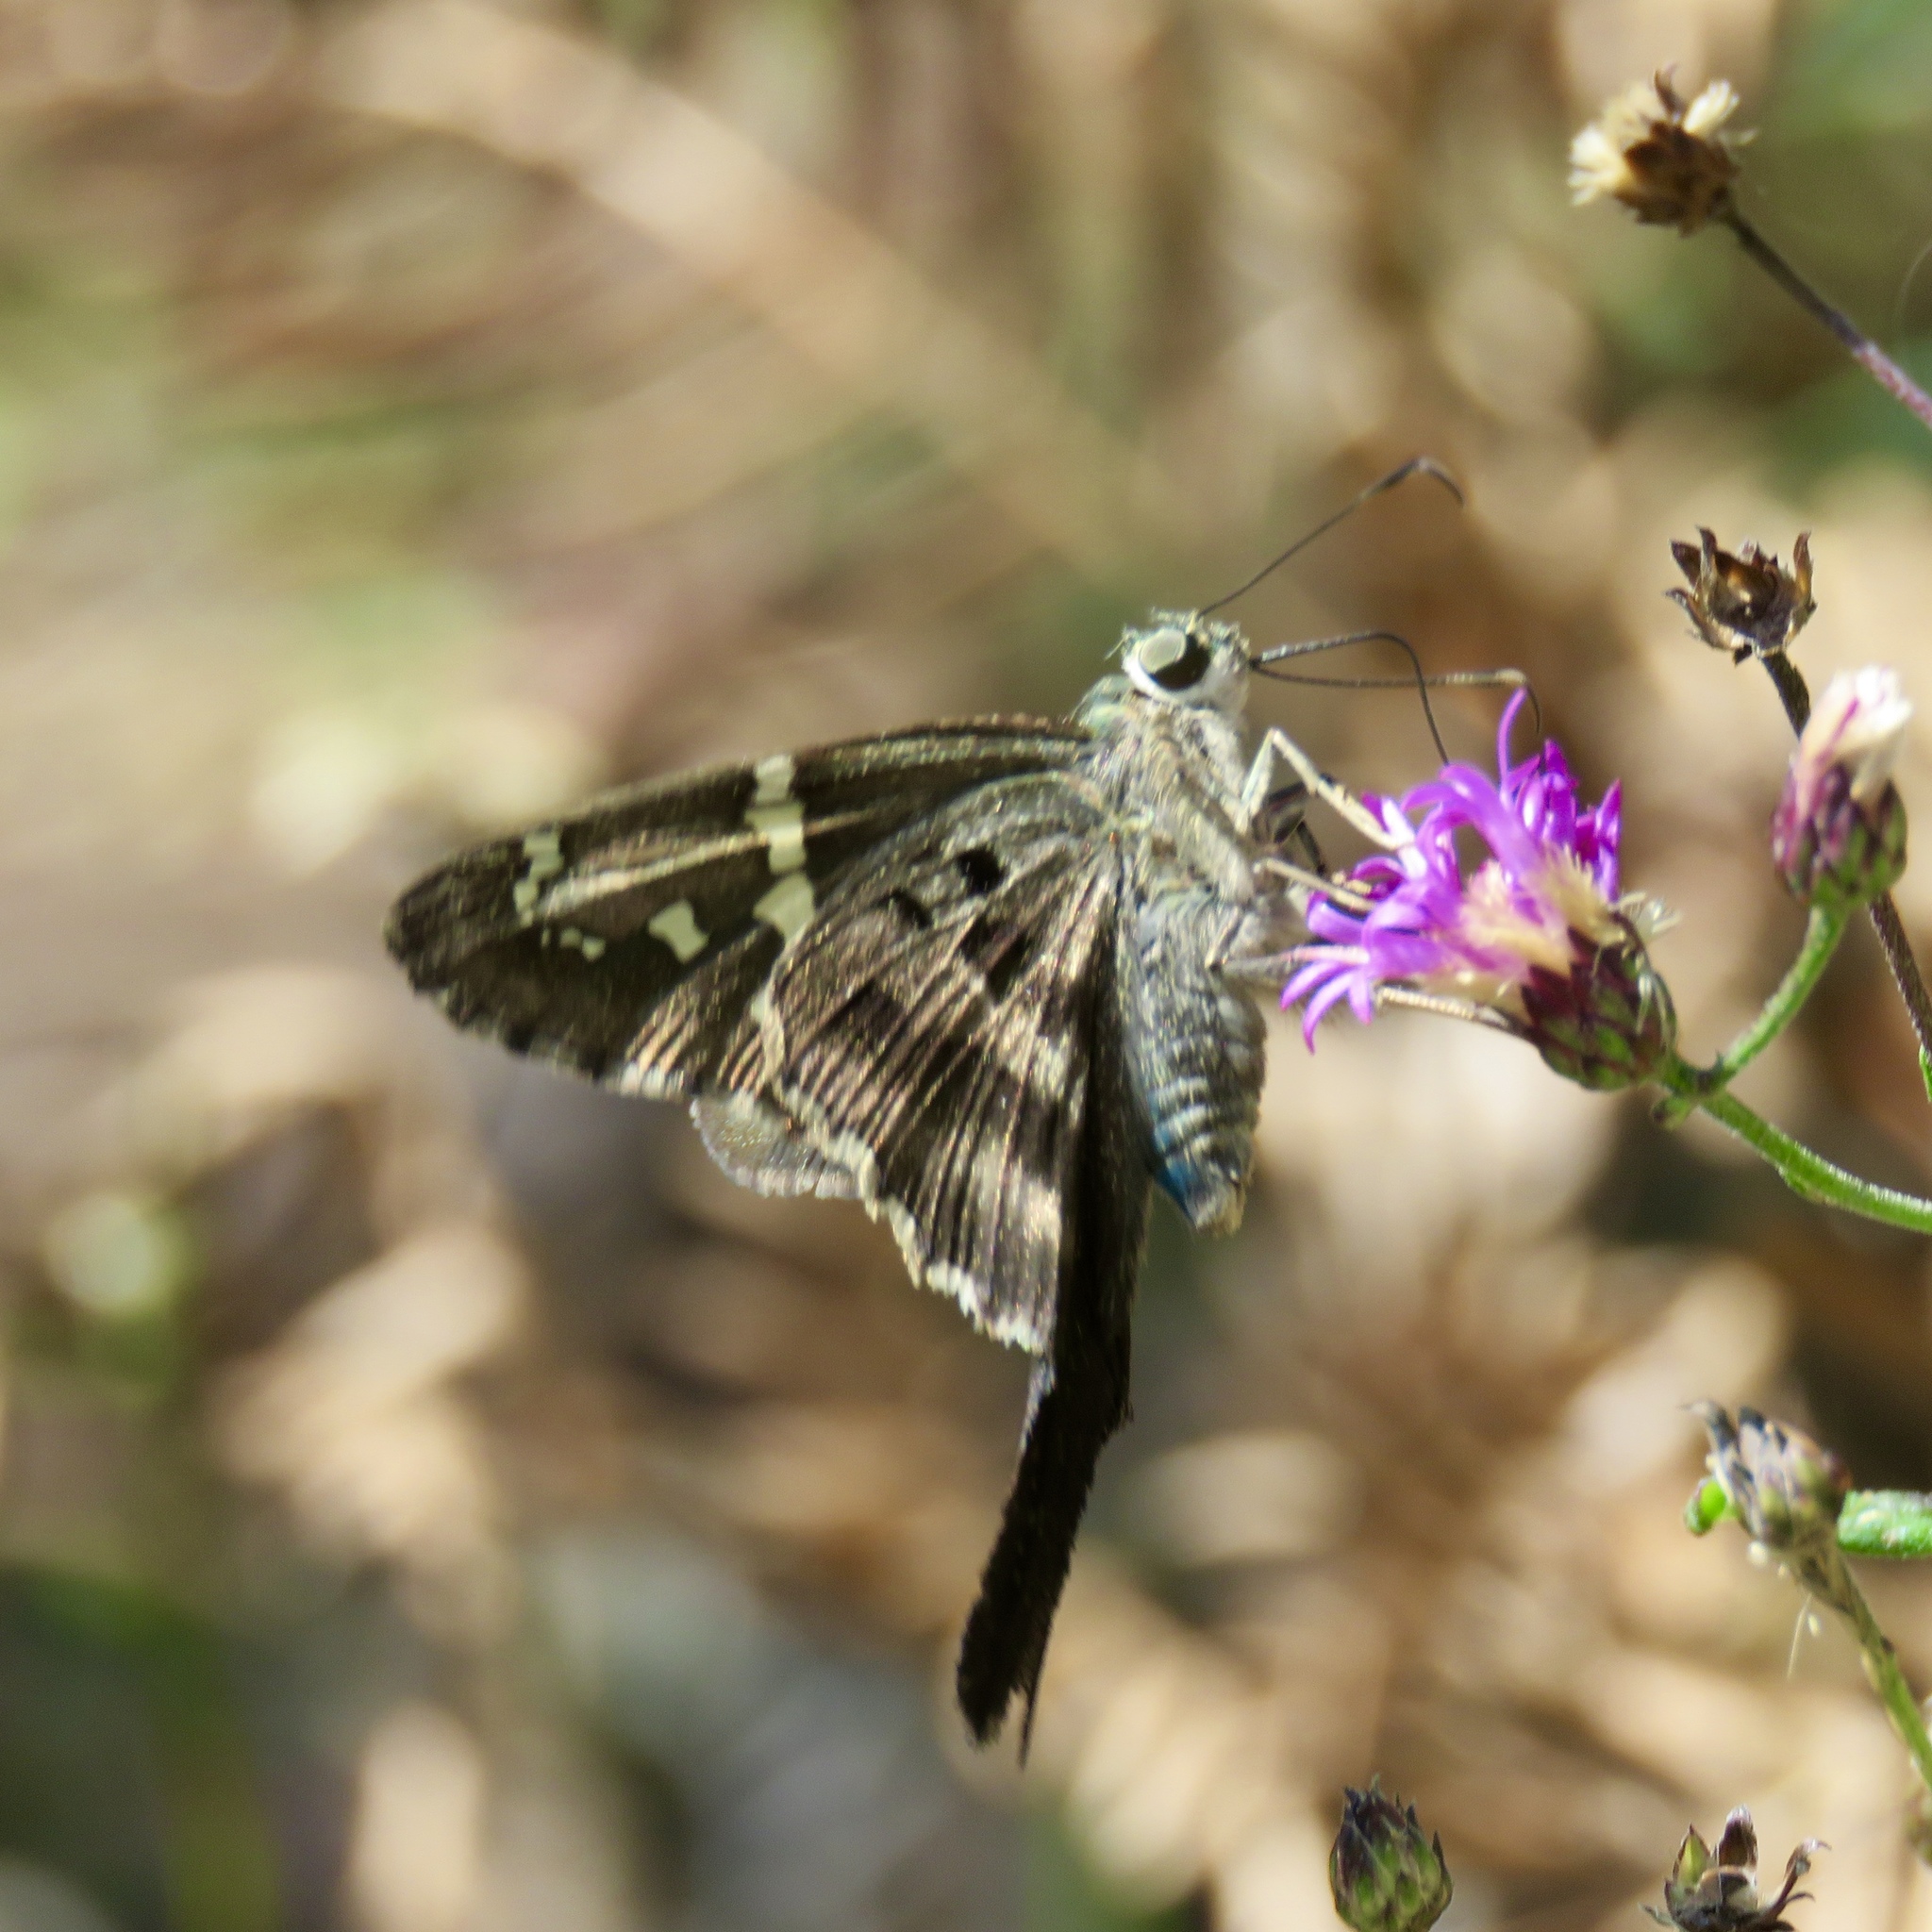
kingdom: Animalia
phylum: Arthropoda
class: Insecta
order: Lepidoptera
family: Hesperiidae
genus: Urbanus
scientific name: Urbanus proteus
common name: Long-tailed skipper
